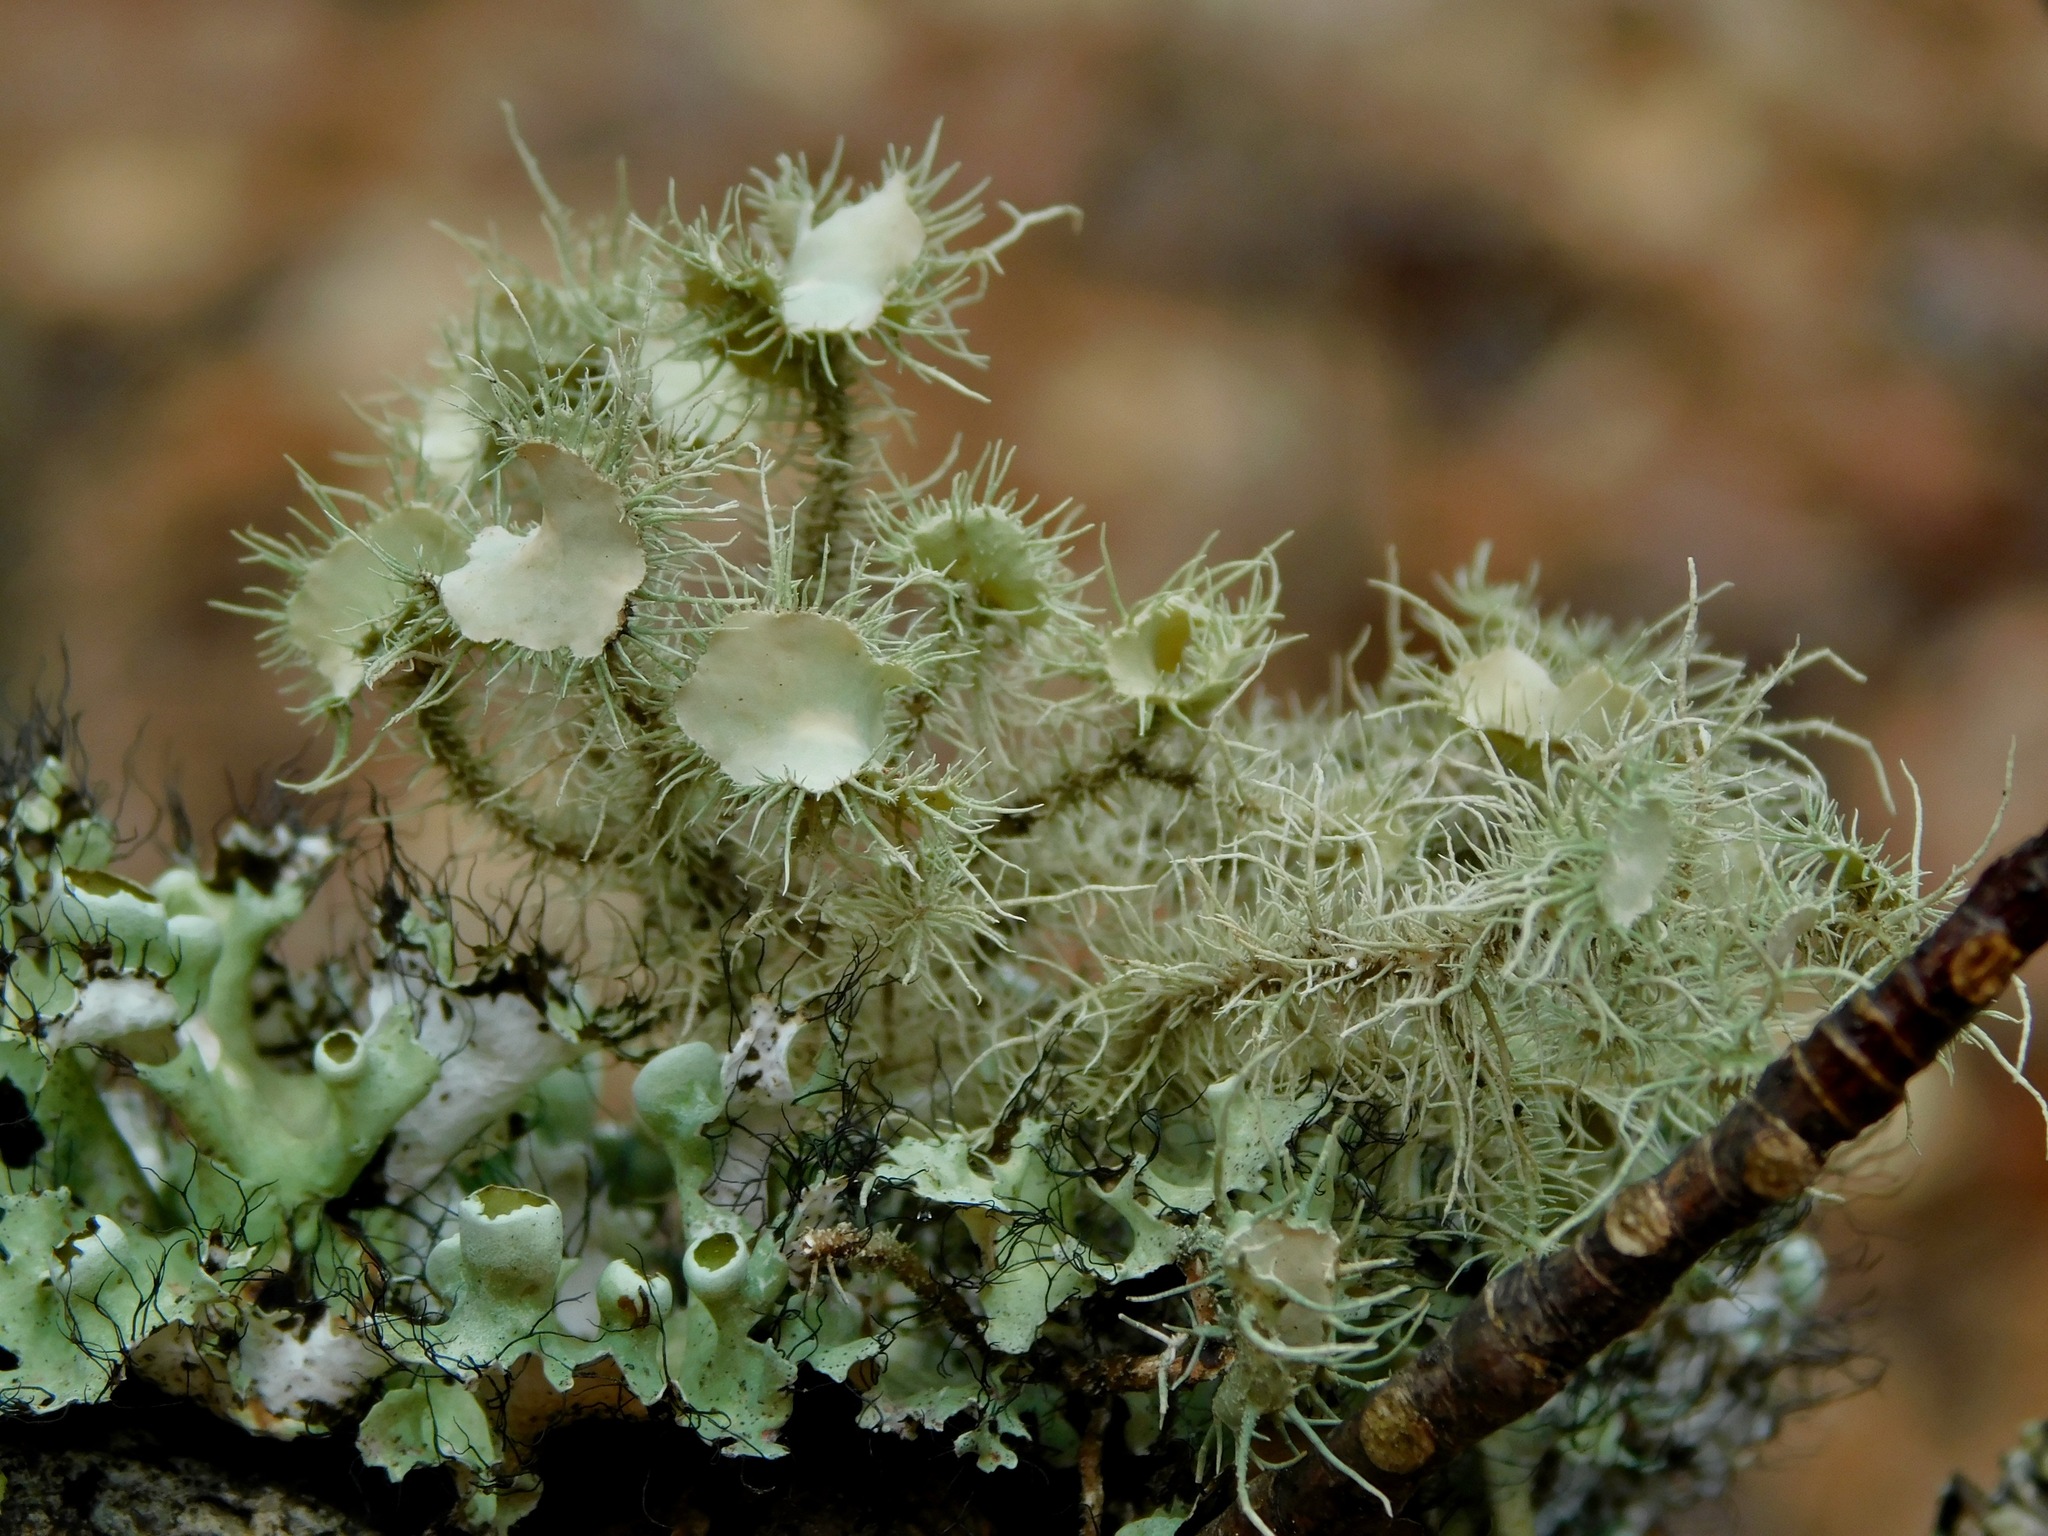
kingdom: Fungi
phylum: Ascomycota
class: Lecanoromycetes
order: Lecanorales
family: Parmeliaceae
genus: Usnea
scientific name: Usnea strigosa
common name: Bushy beard lichen
